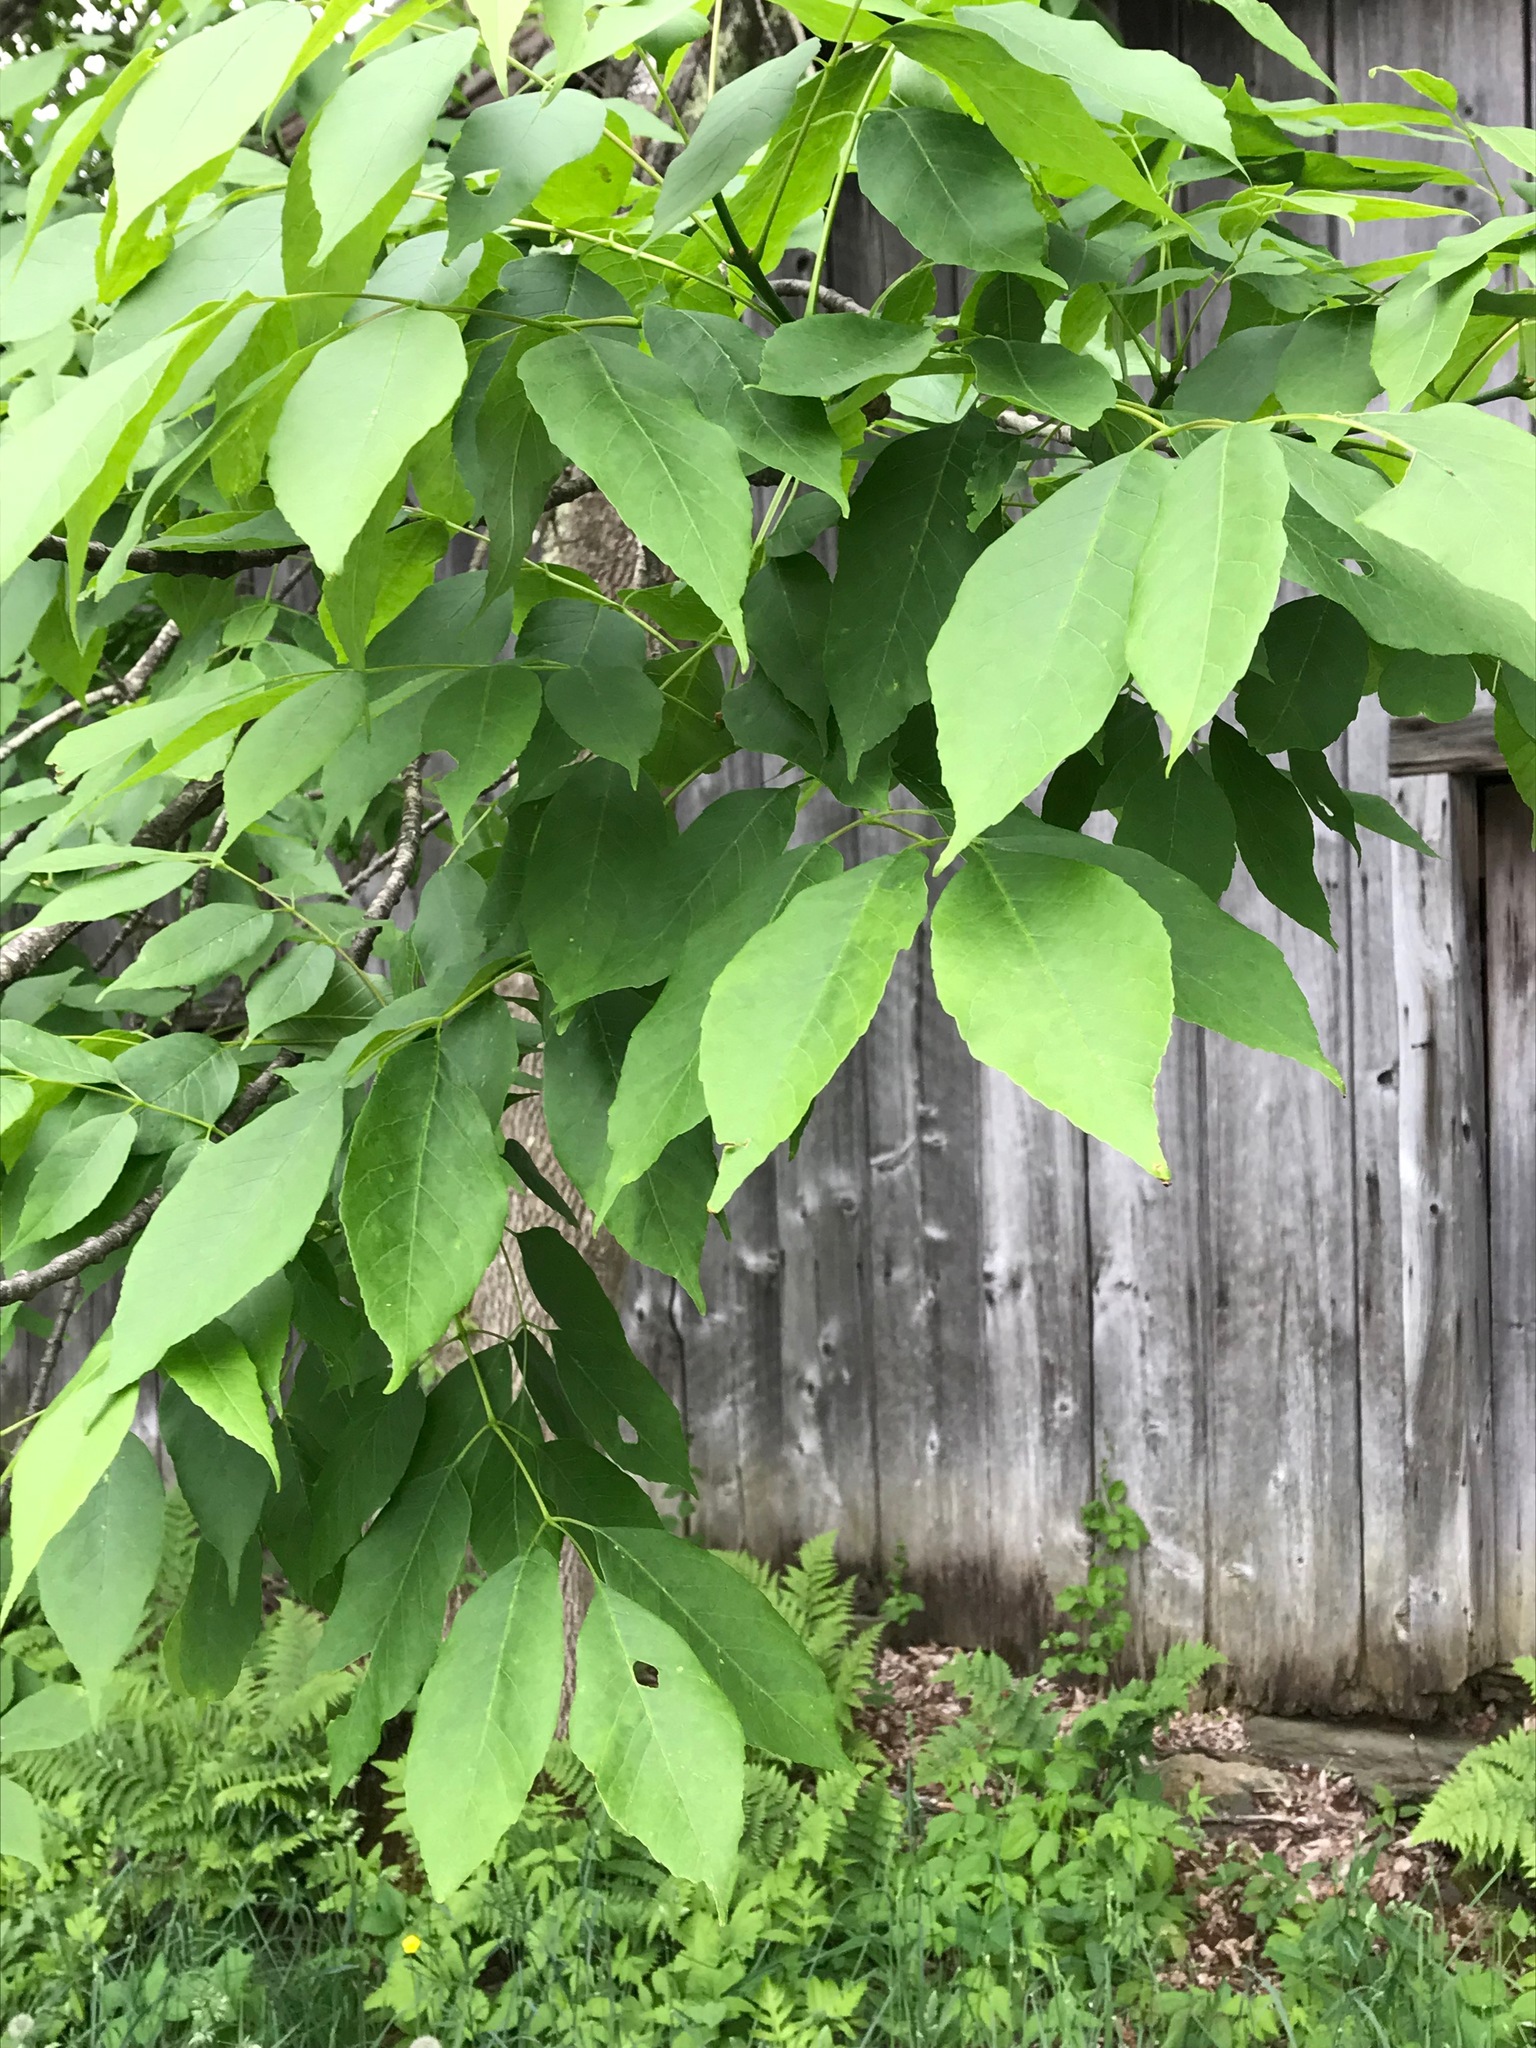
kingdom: Plantae
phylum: Tracheophyta
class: Magnoliopsida
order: Lamiales
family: Oleaceae
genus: Fraxinus
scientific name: Fraxinus americana
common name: White ash
